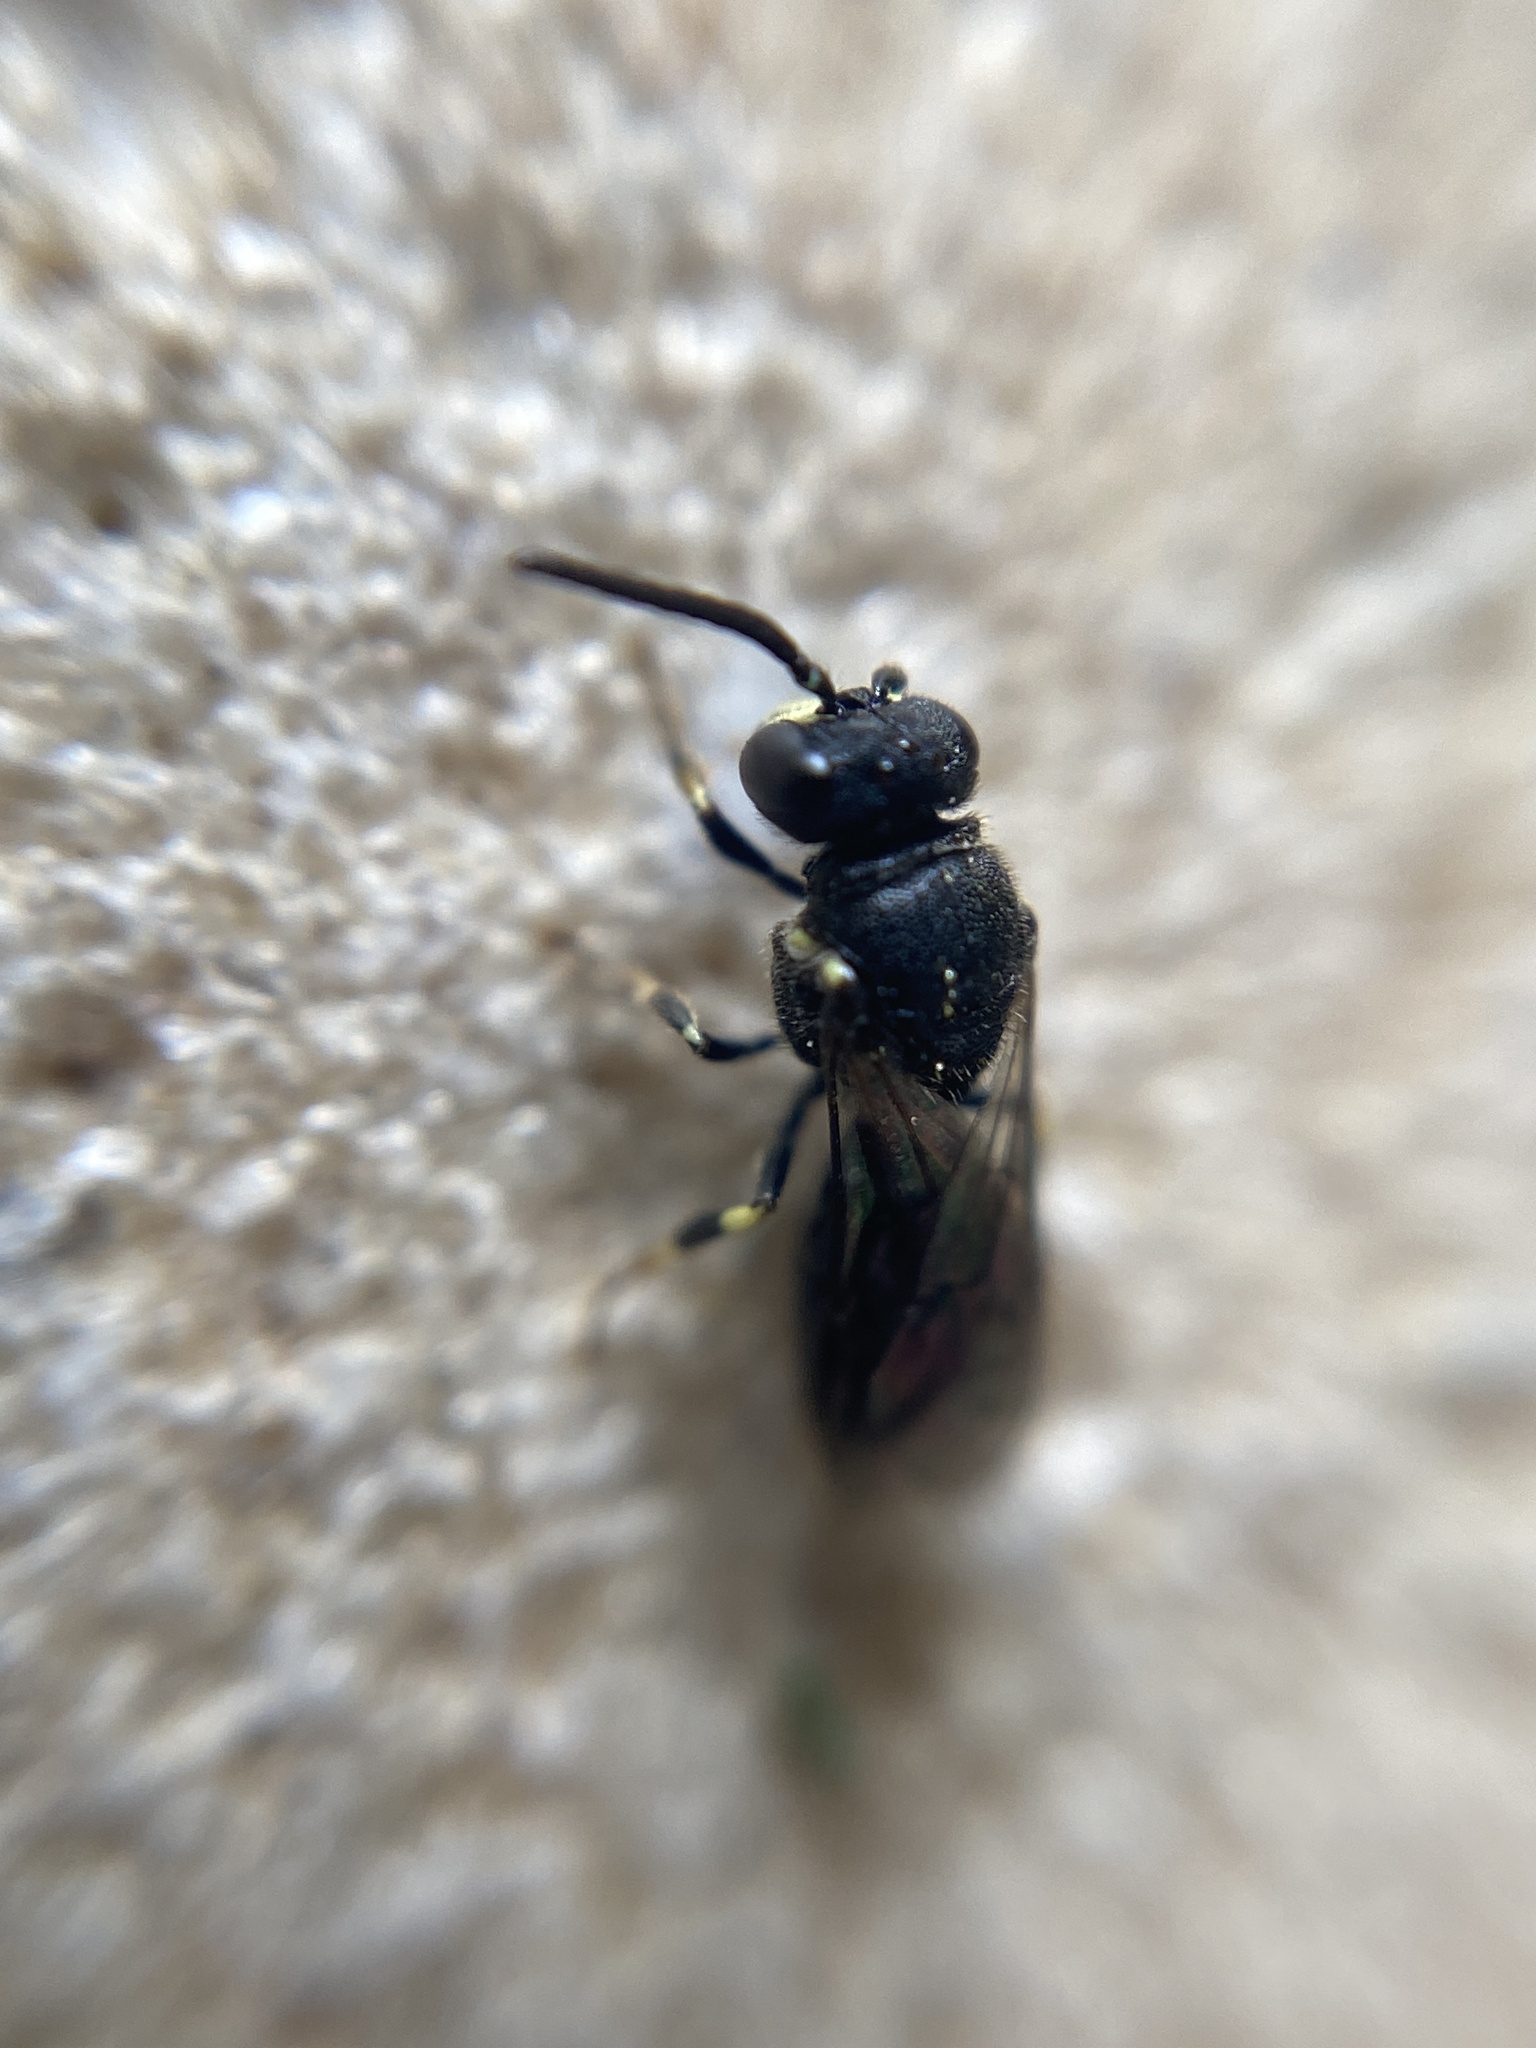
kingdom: Animalia
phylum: Arthropoda
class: Insecta
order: Hymenoptera
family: Colletidae
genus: Hylaeus
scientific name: Hylaeus communis
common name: Common yellow-face bee
